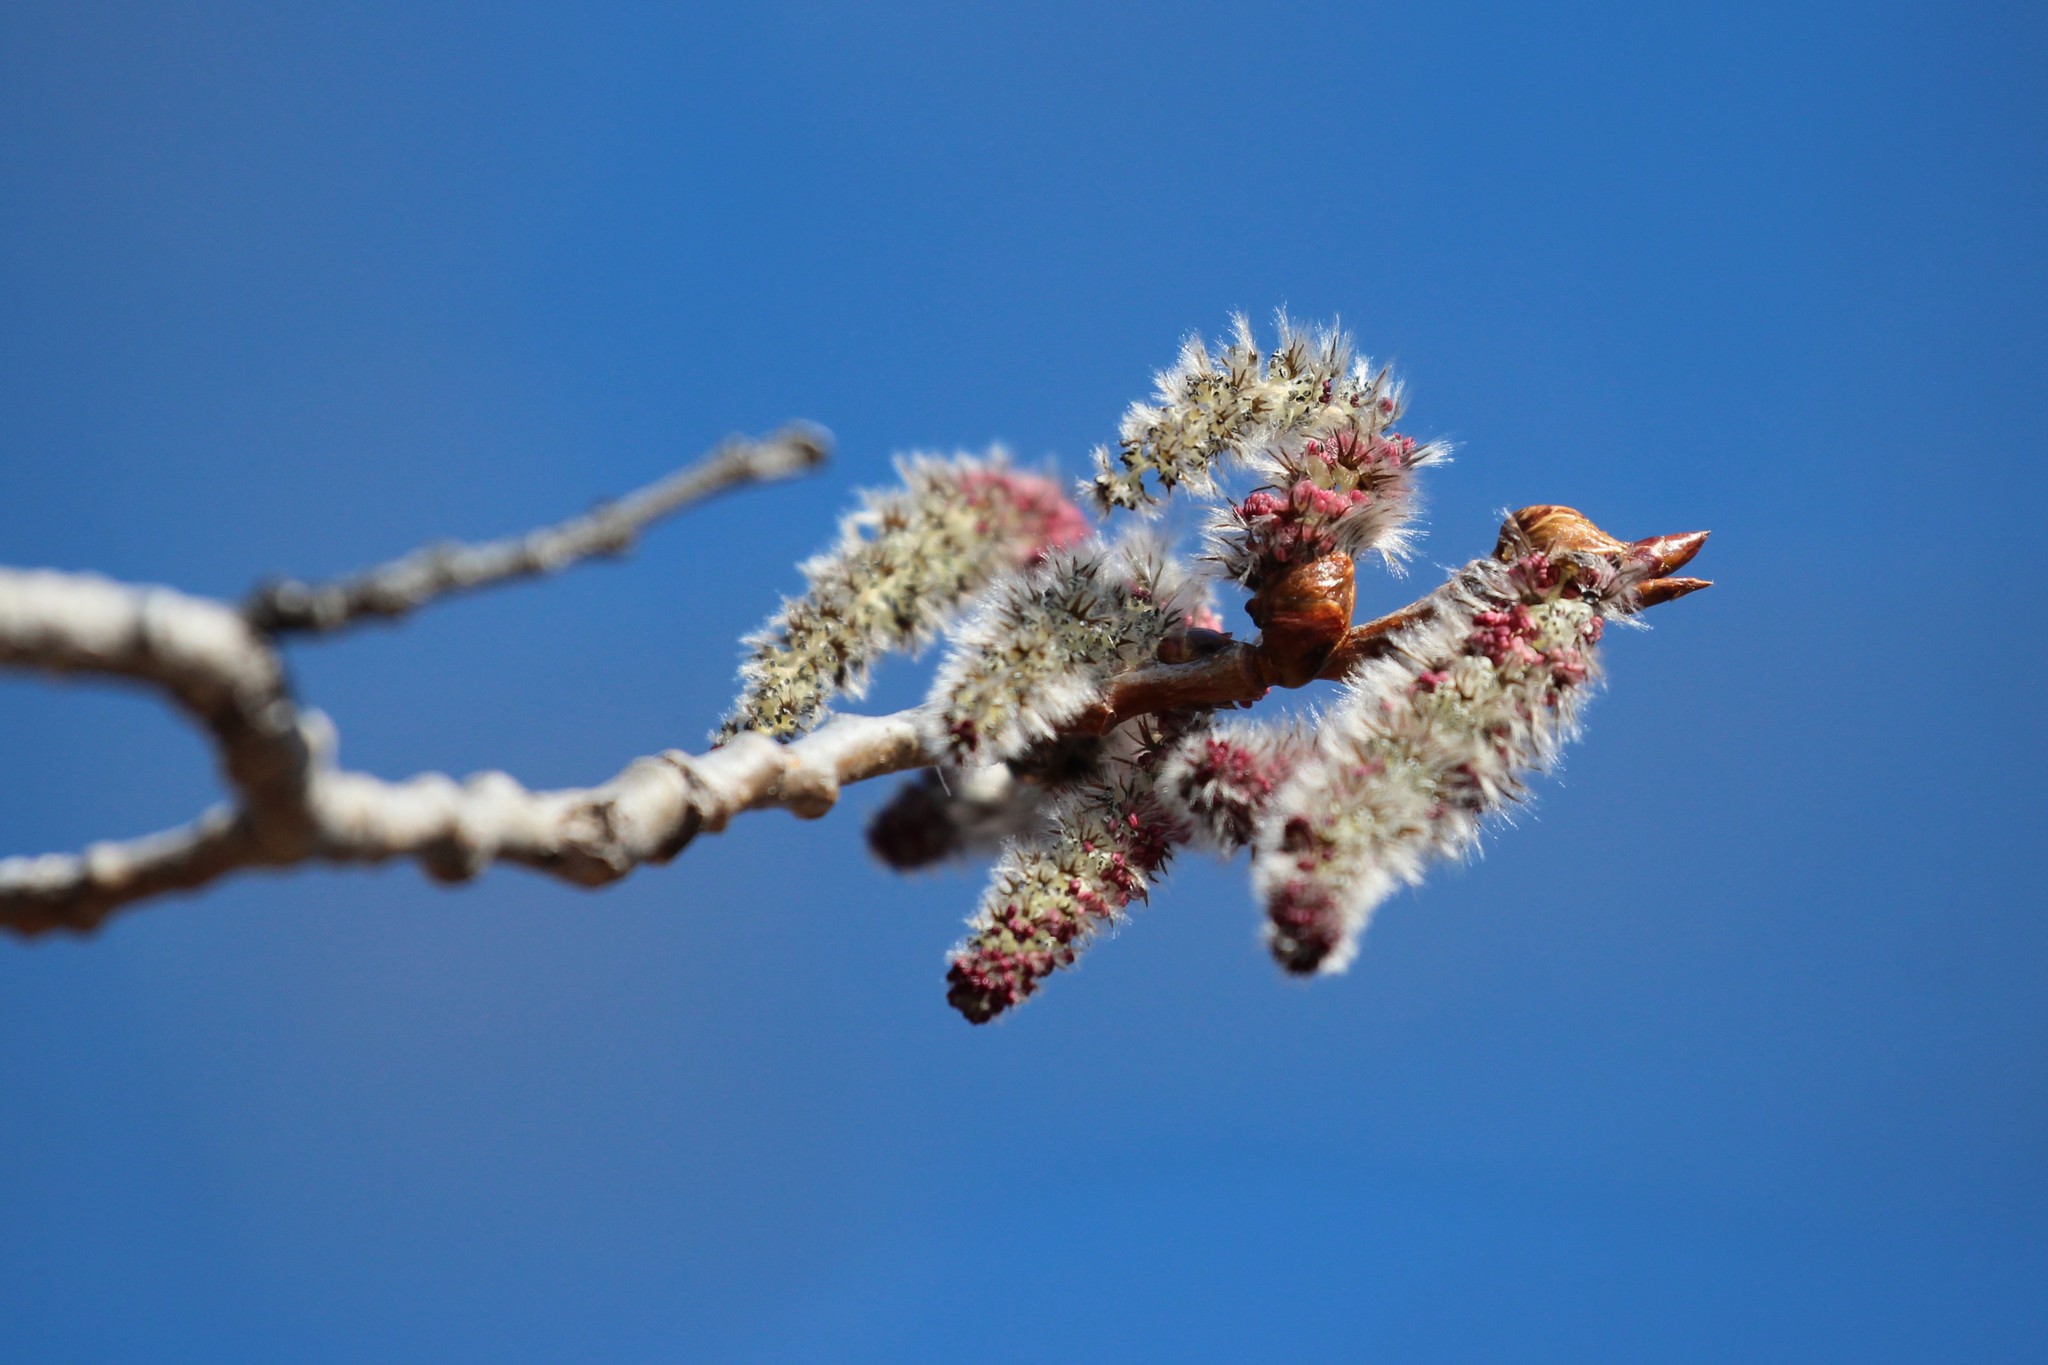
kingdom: Plantae
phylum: Tracheophyta
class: Magnoliopsida
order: Malpighiales
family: Salicaceae
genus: Populus
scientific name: Populus tremuloides
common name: Quaking aspen
